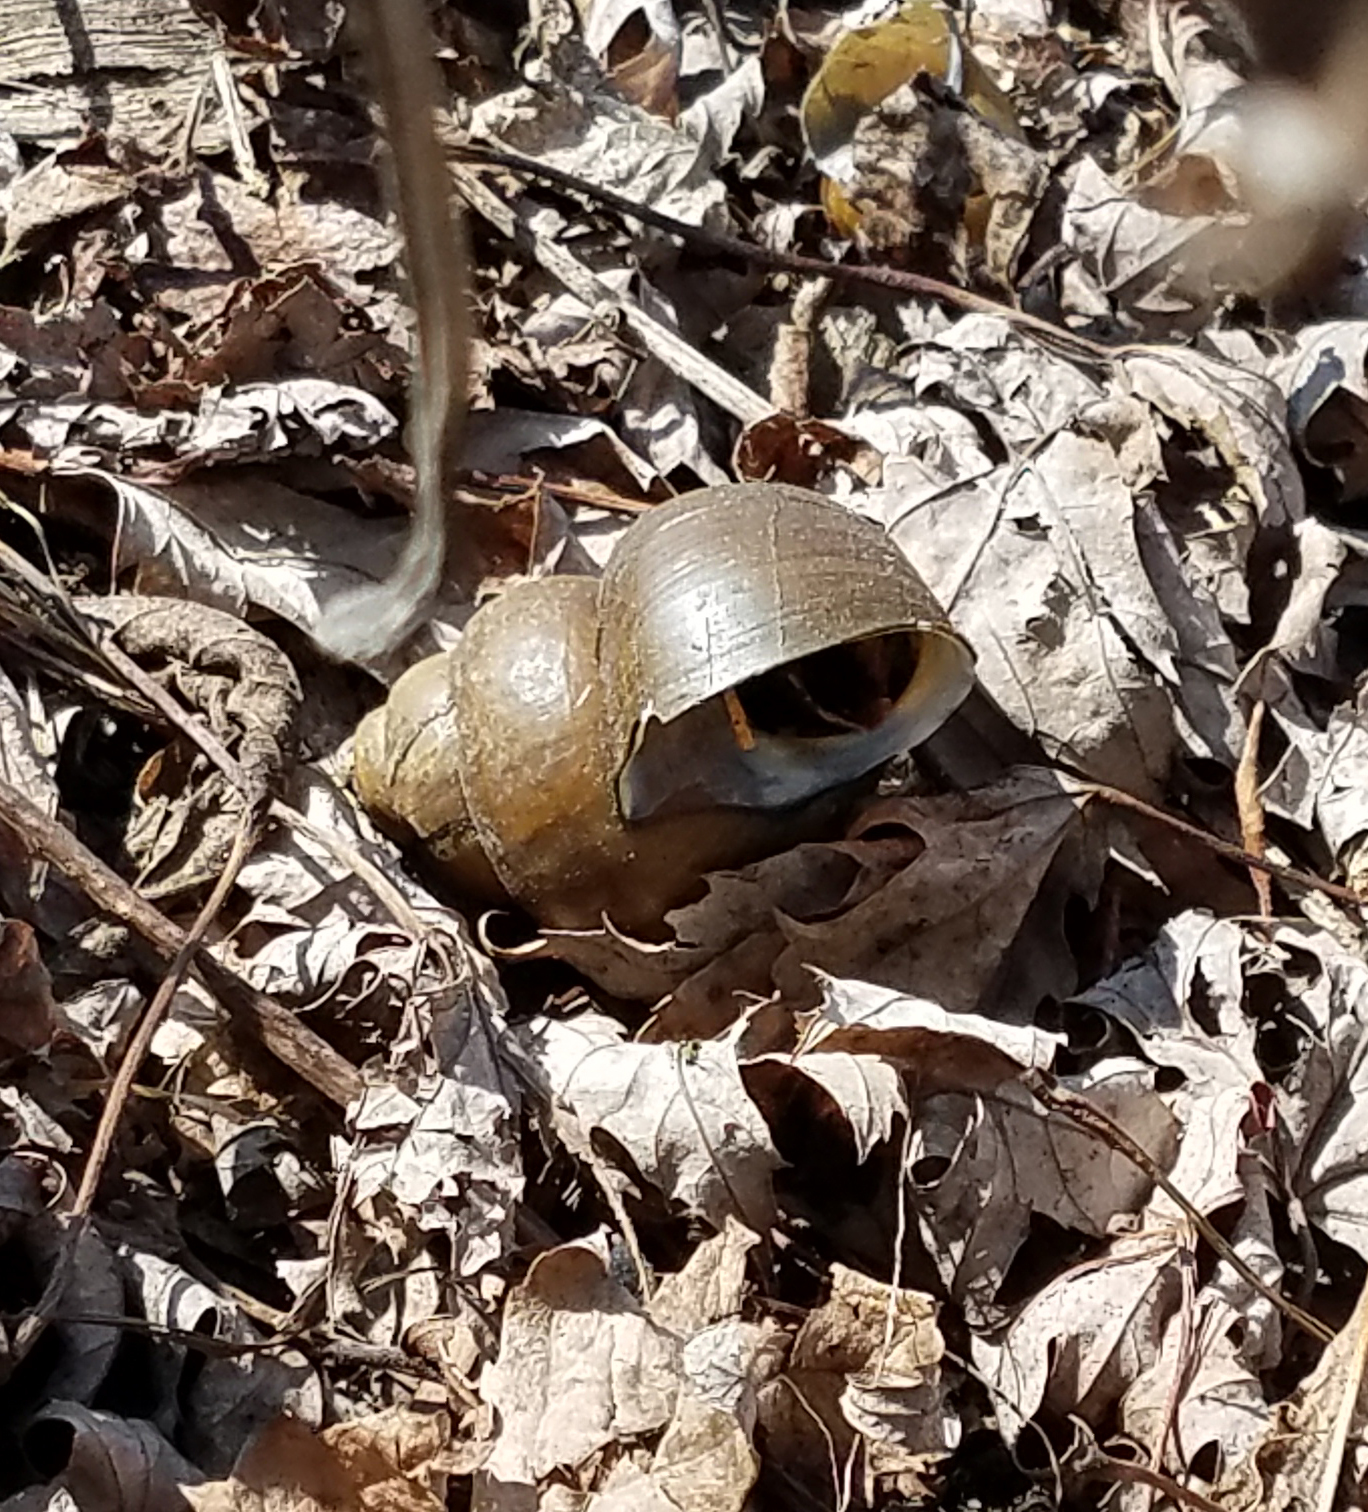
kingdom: Animalia
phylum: Mollusca
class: Gastropoda
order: Architaenioglossa
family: Viviparidae
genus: Cipangopaludina
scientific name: Cipangopaludina chinensis
